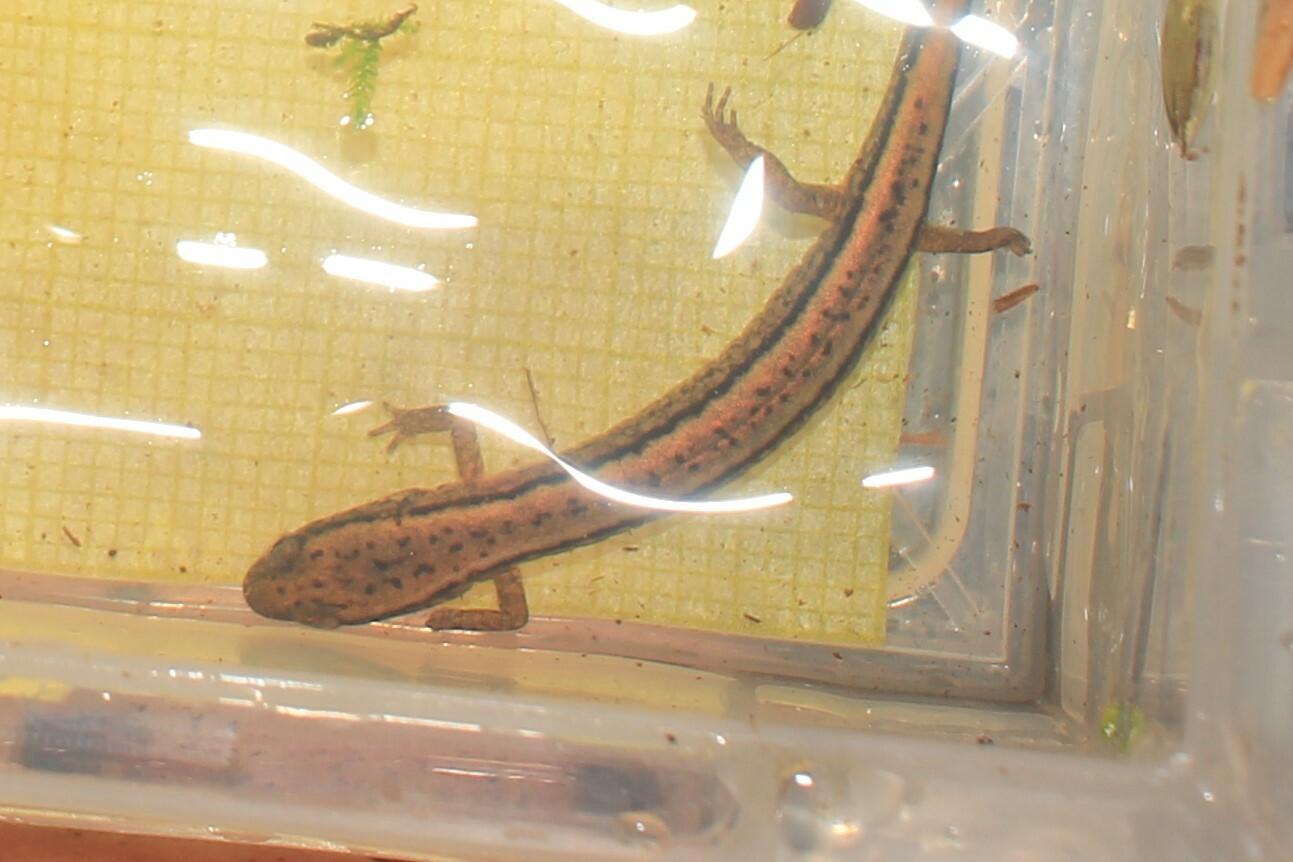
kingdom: Animalia
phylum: Chordata
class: Amphibia
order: Caudata
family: Plethodontidae
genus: Eurycea
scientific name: Eurycea bislineata
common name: Northern two-lined salamander
